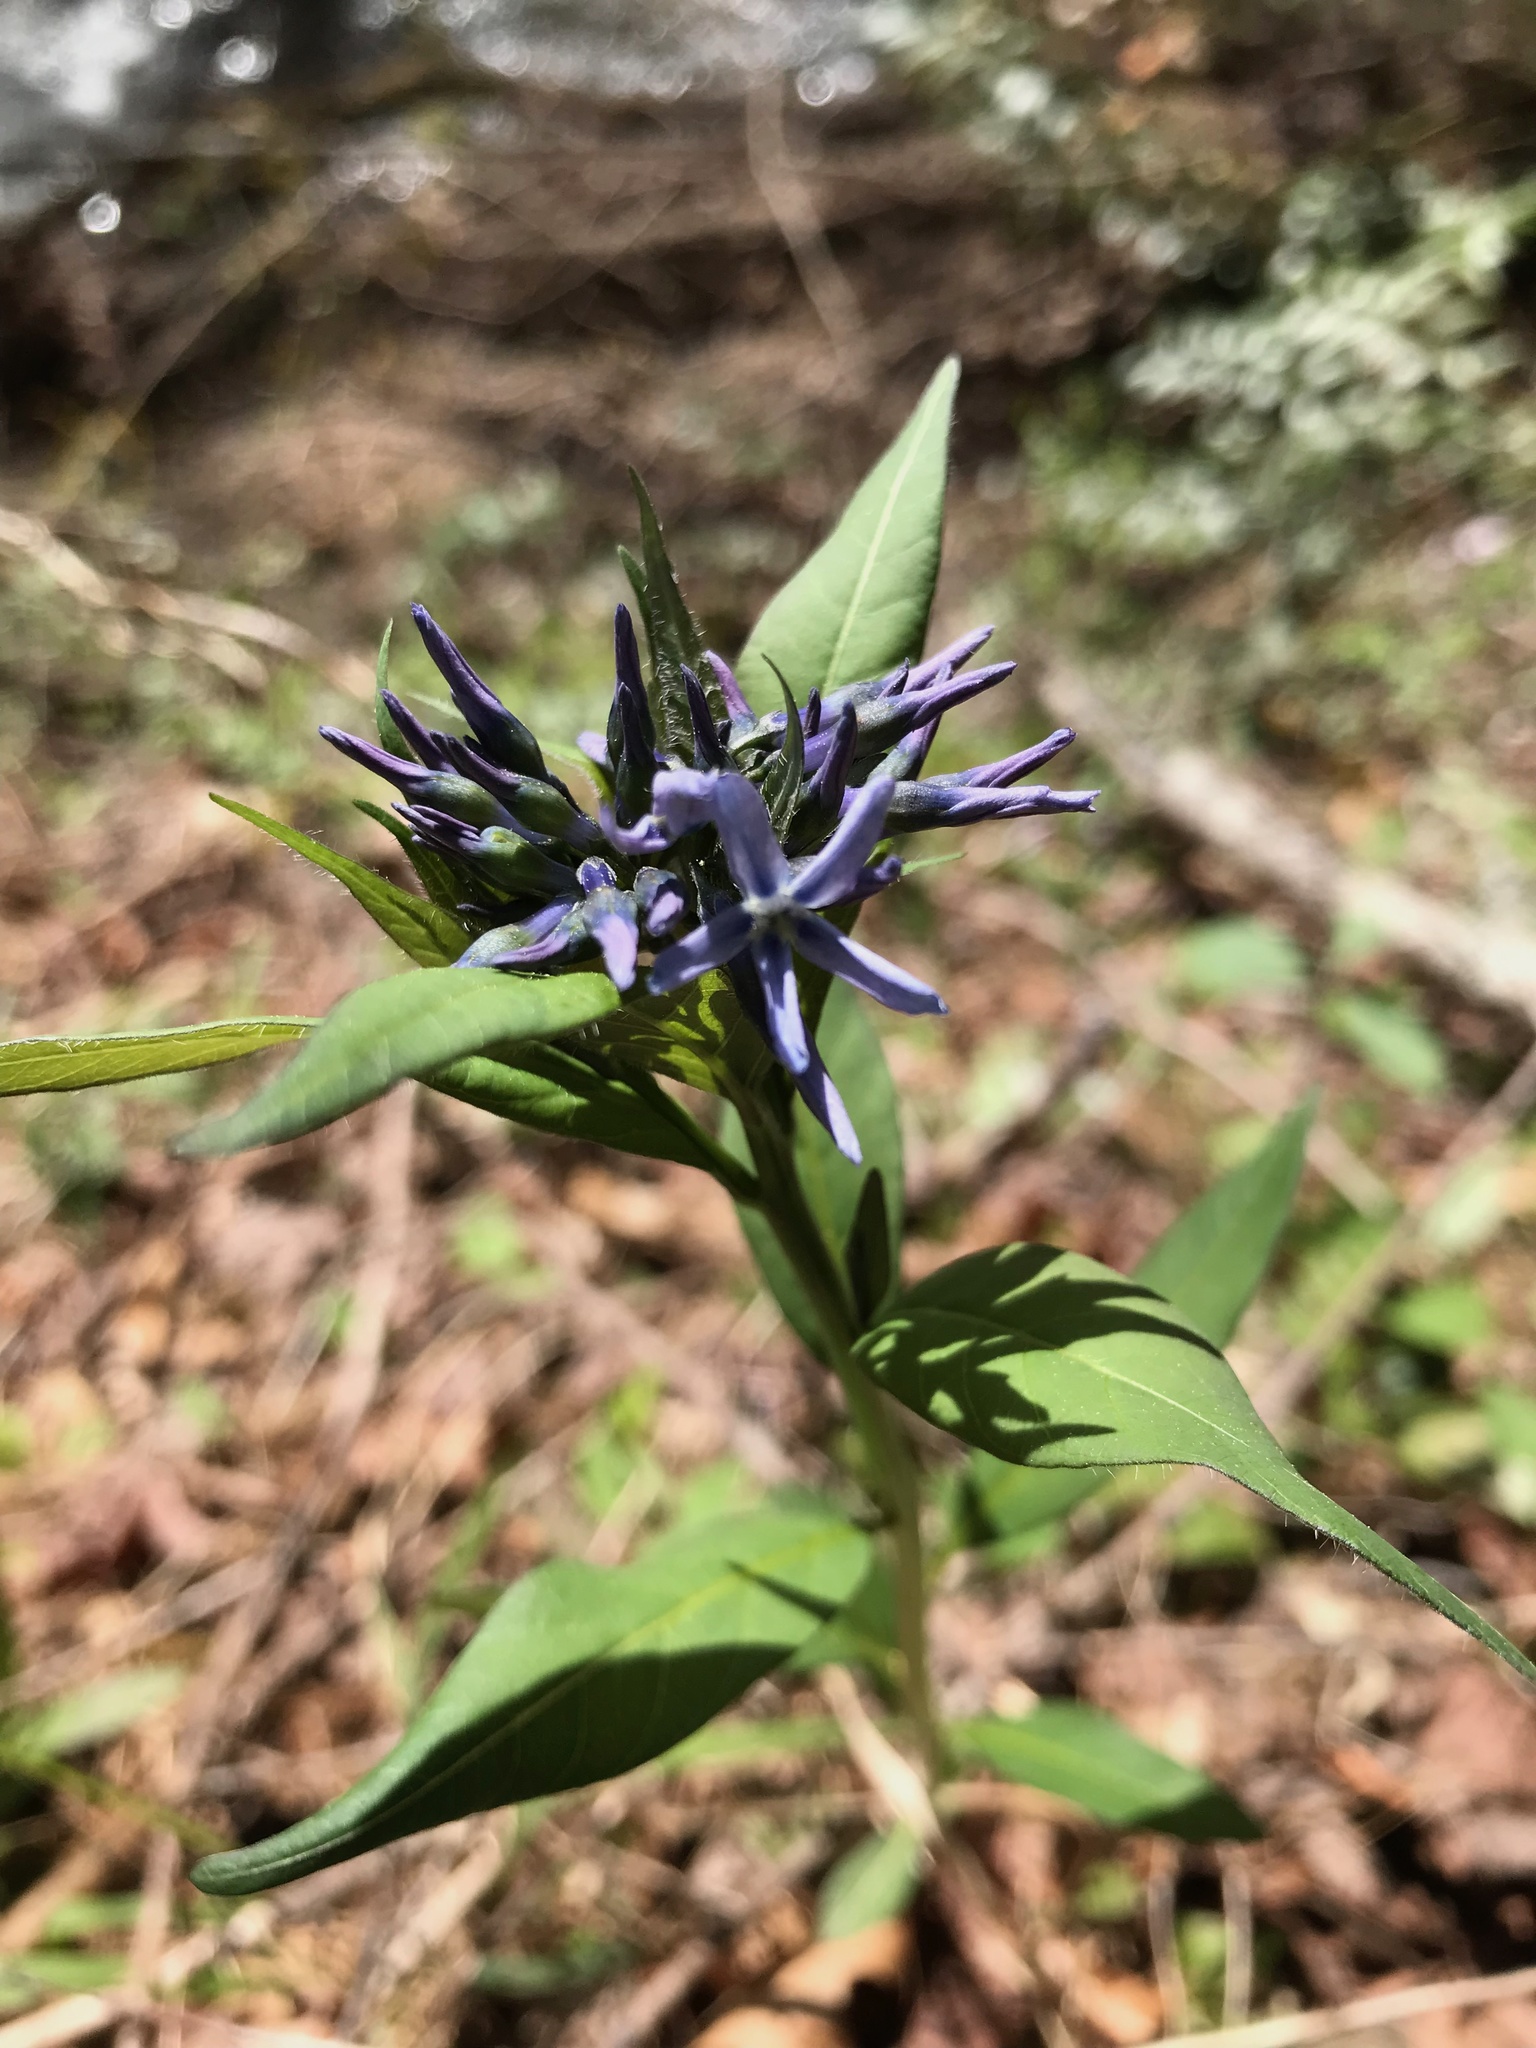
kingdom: Plantae
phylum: Tracheophyta
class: Magnoliopsida
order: Gentianales
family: Apocynaceae
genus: Amsonia
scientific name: Amsonia tabernaemontana
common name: Texas-star
